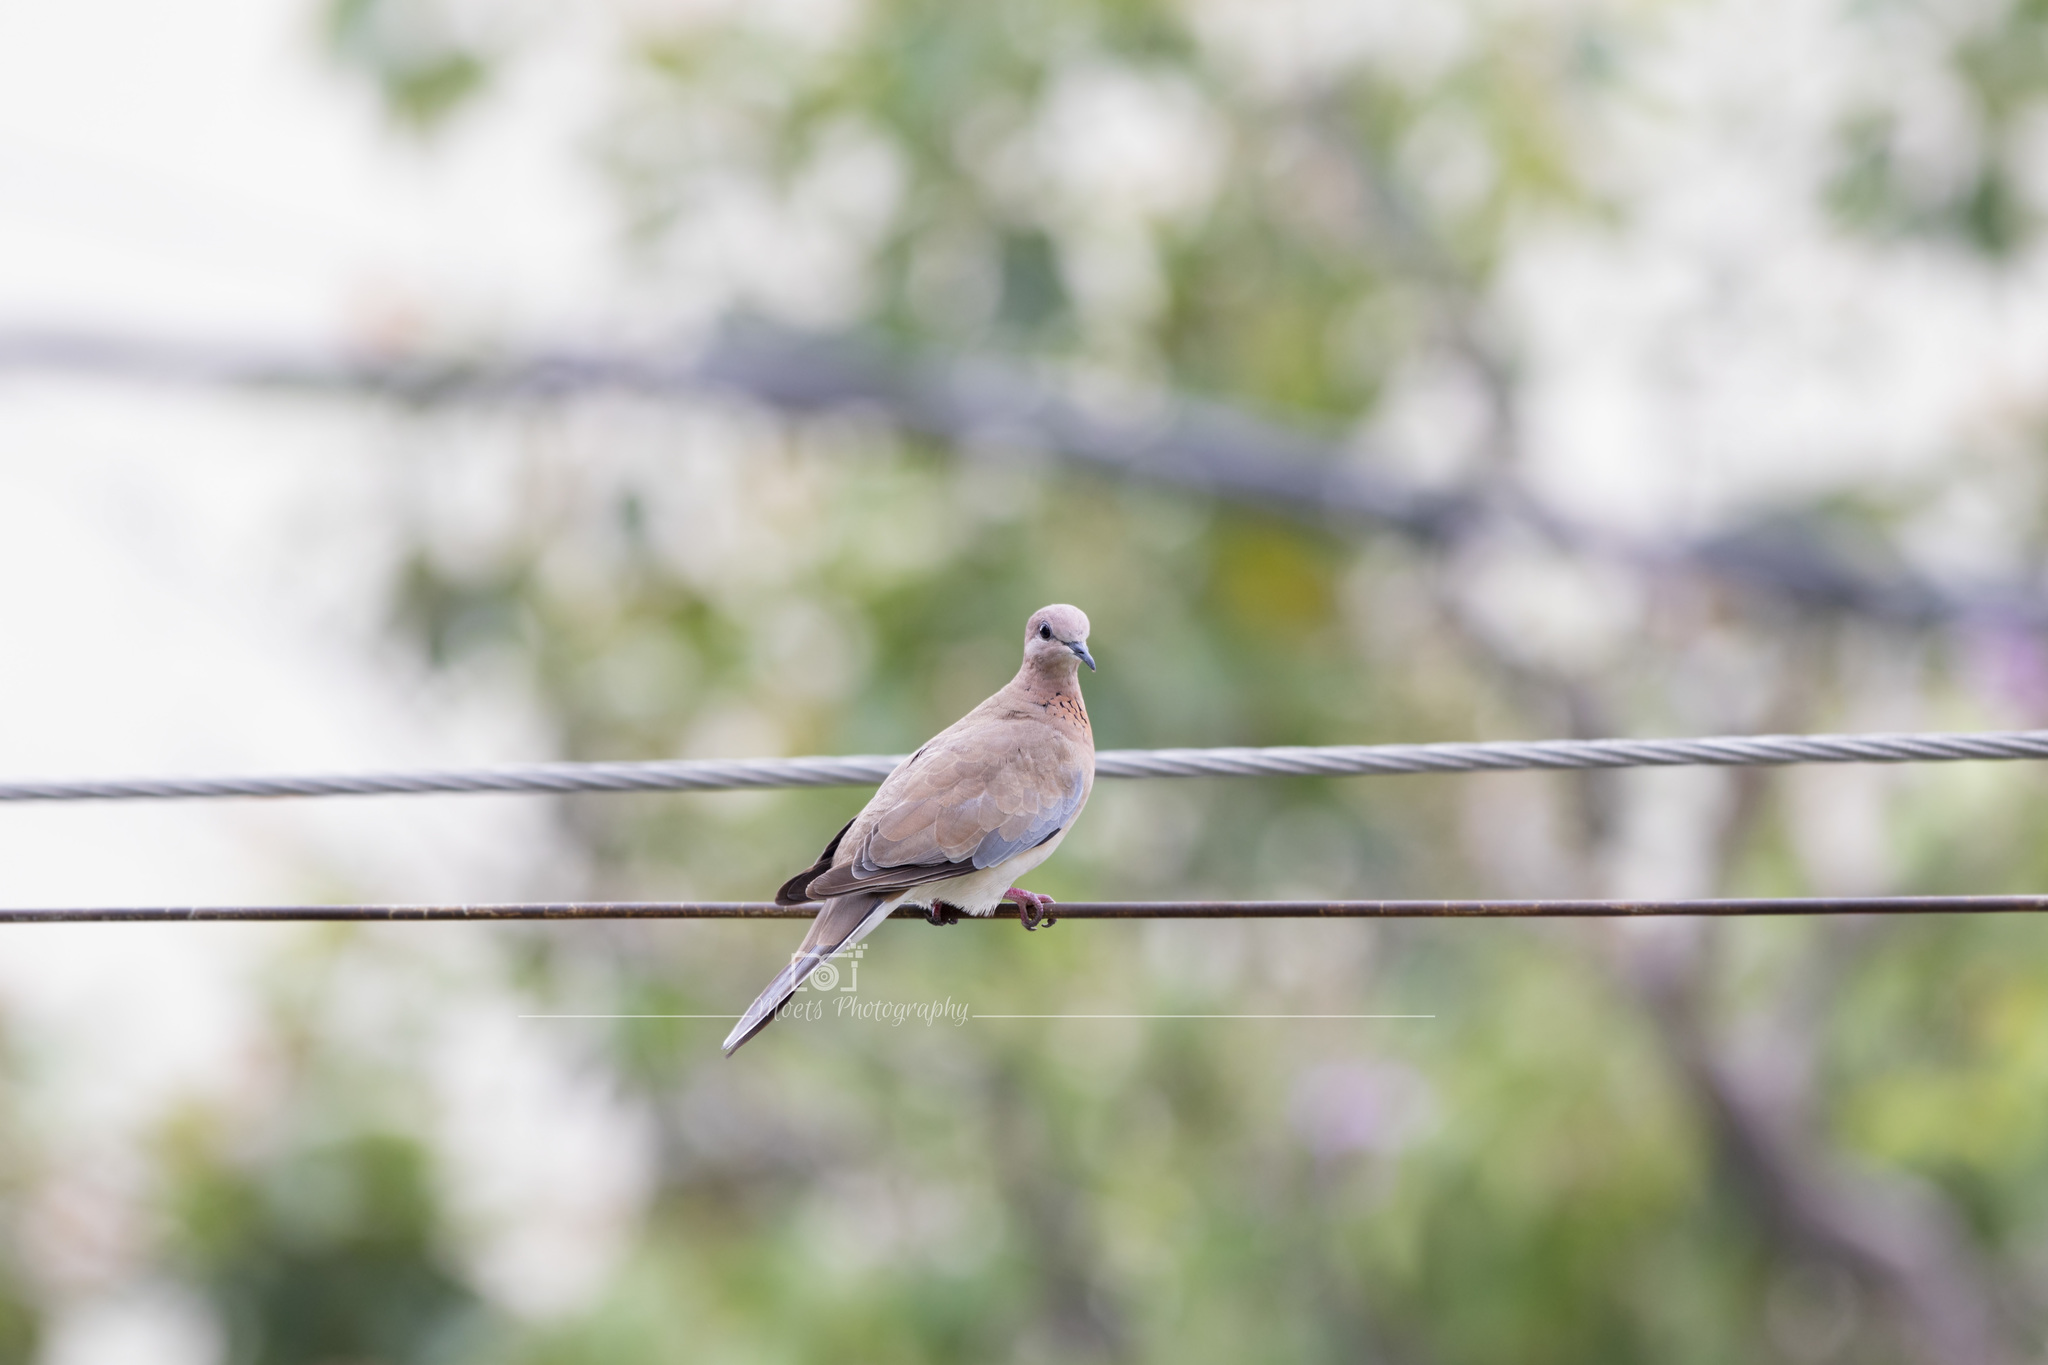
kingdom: Animalia
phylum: Chordata
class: Aves
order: Columbiformes
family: Columbidae
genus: Spilopelia
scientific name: Spilopelia senegalensis
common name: Laughing dove
